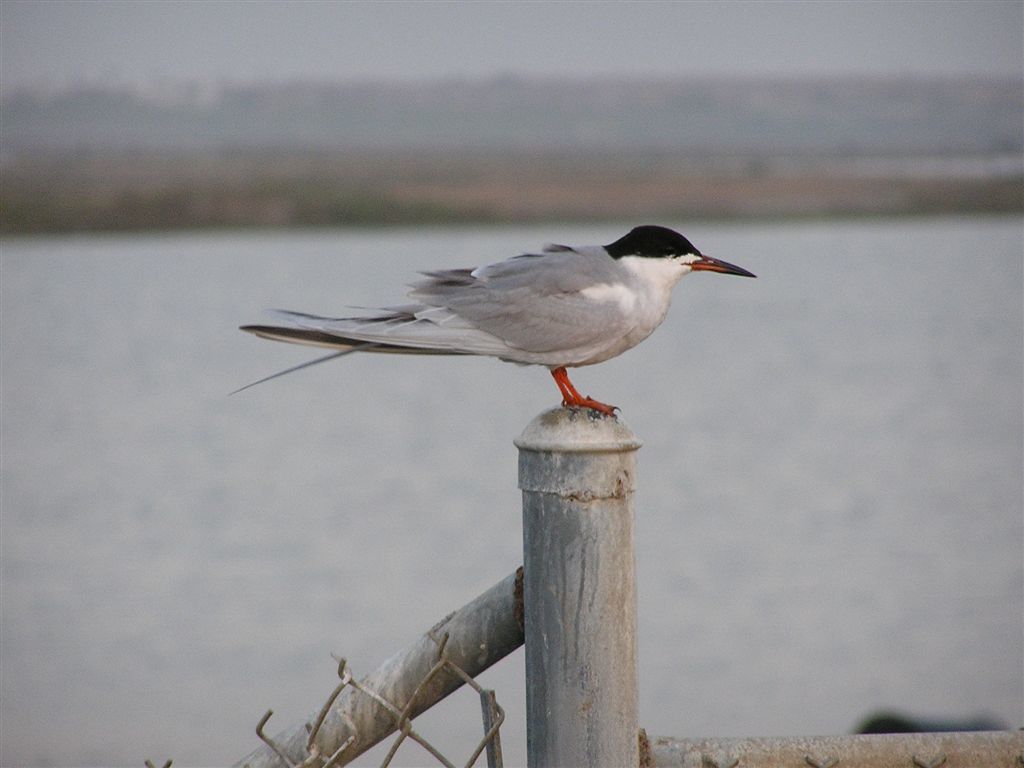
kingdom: Animalia
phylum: Chordata
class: Aves
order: Charadriiformes
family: Laridae
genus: Sterna
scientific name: Sterna forsteri
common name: Forster's tern
